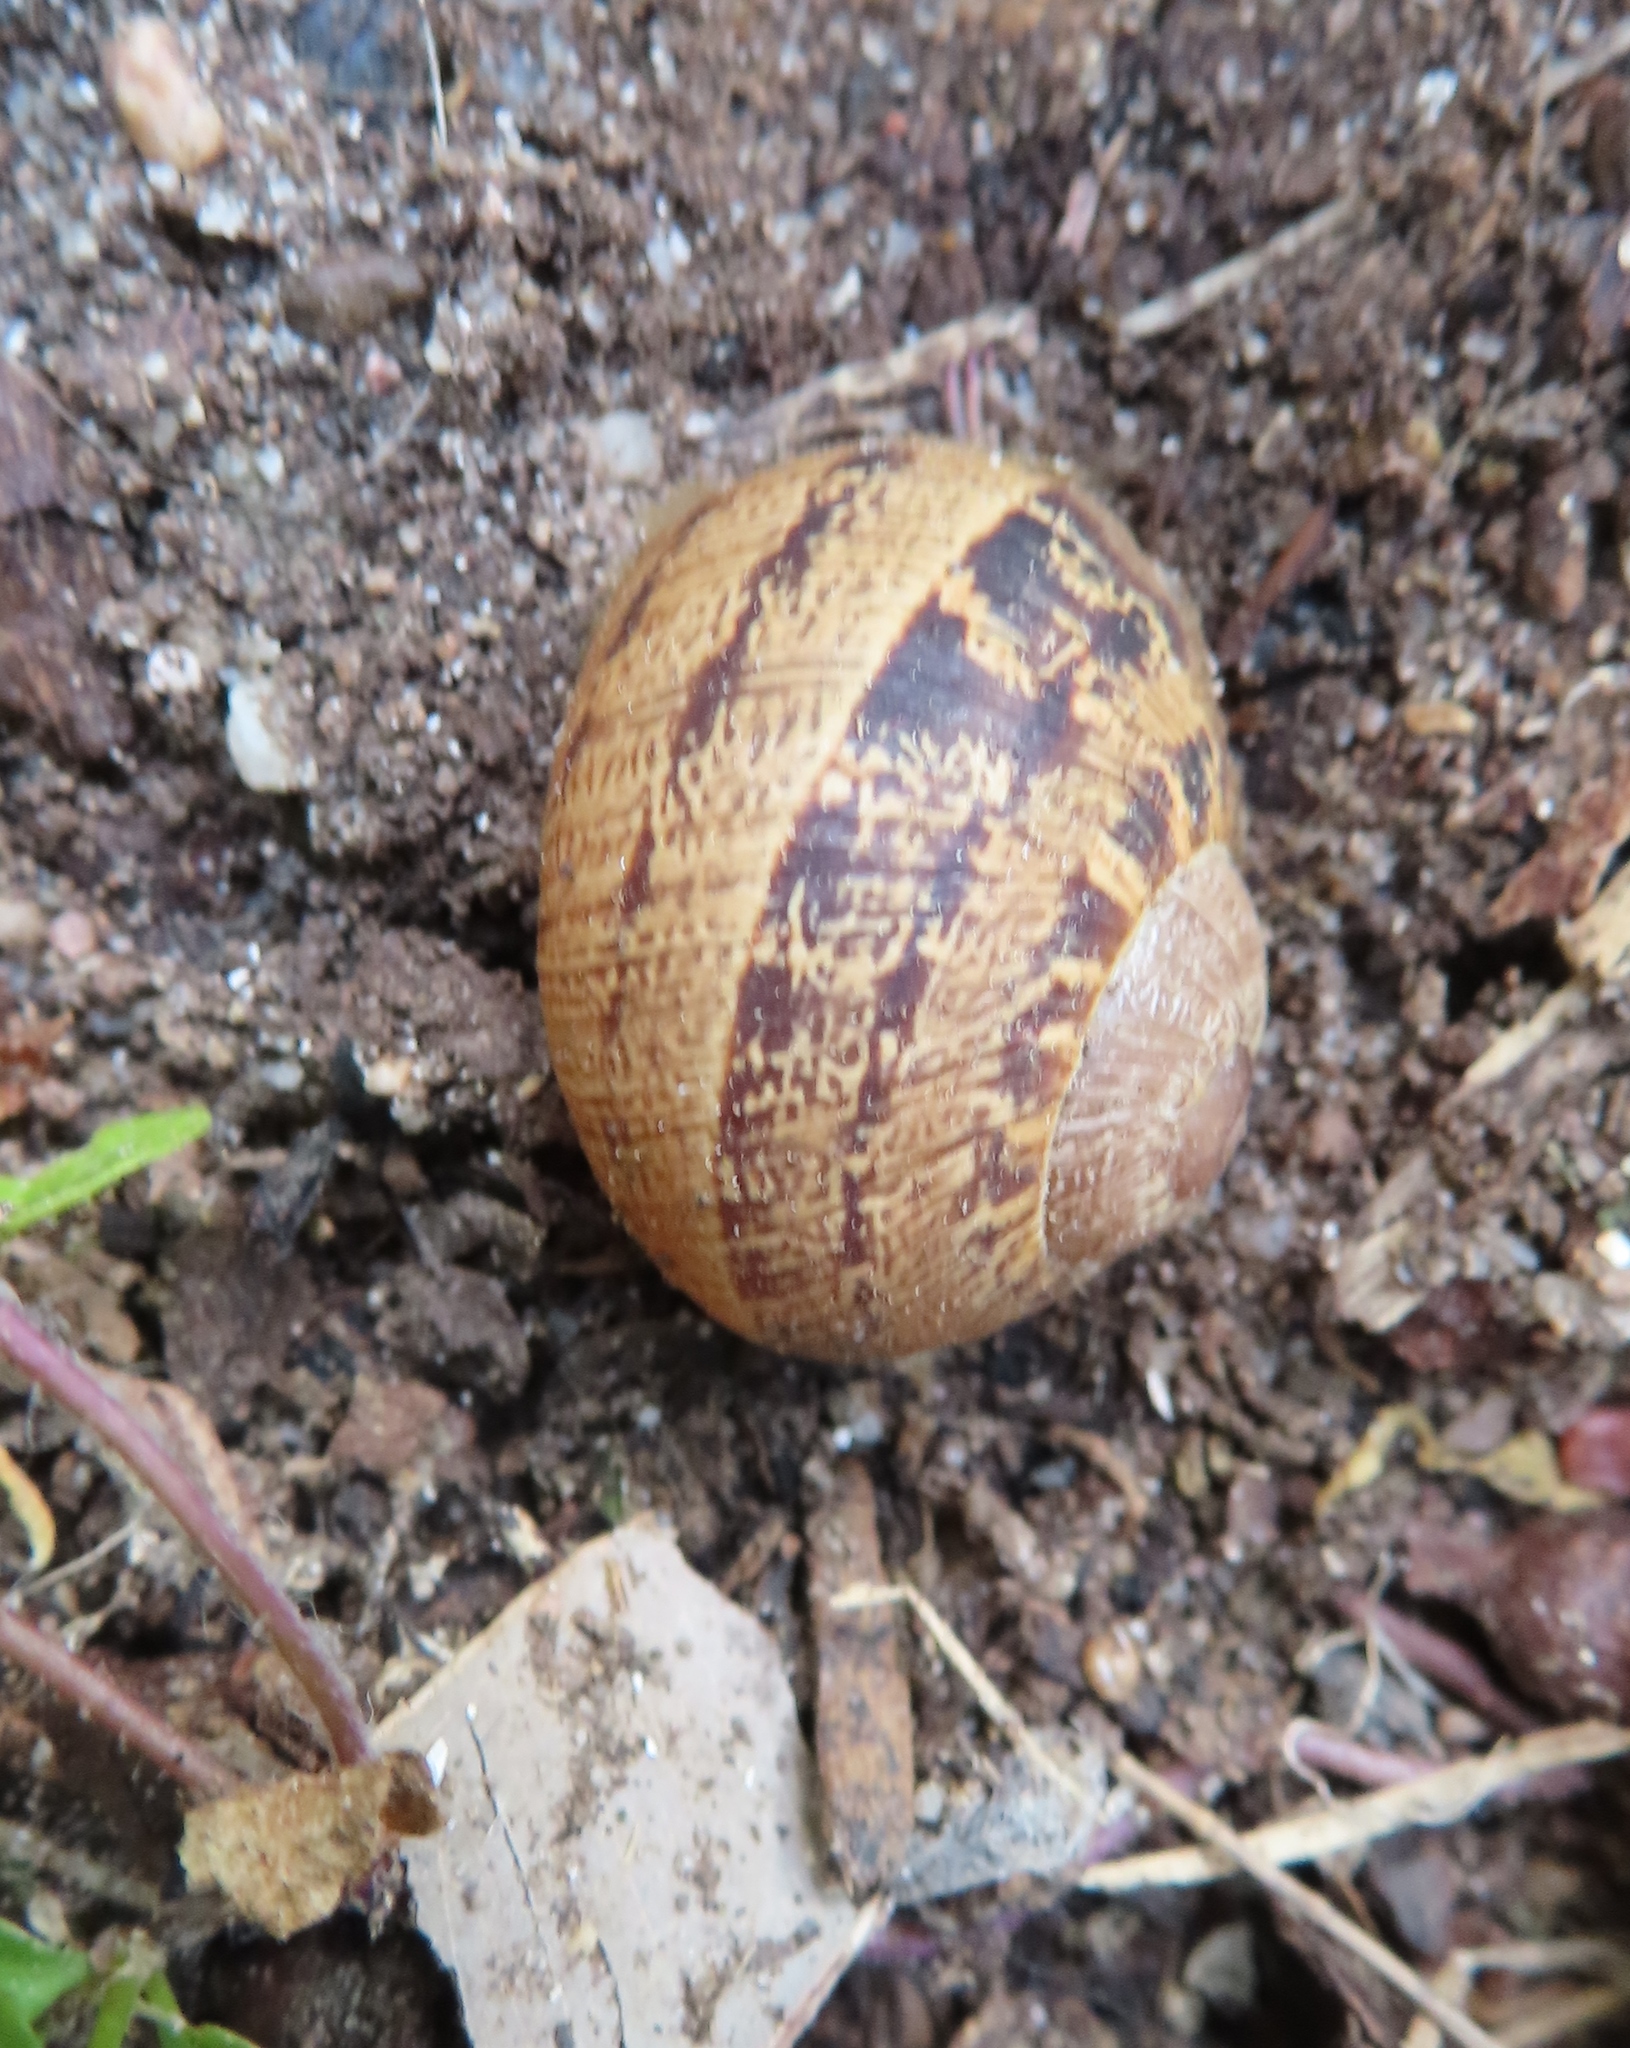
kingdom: Animalia
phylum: Mollusca
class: Gastropoda
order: Stylommatophora
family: Helicidae
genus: Cornu
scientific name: Cornu aspersum
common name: Brown garden snail
